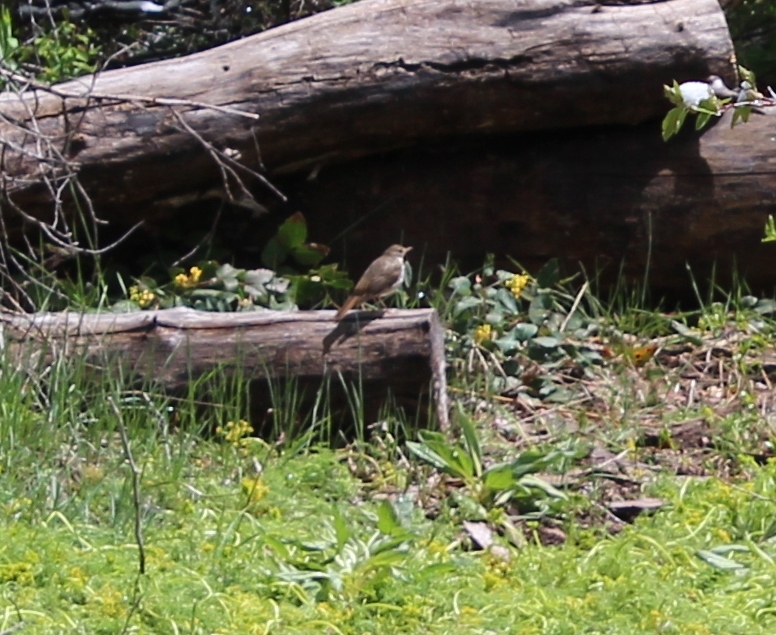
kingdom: Animalia
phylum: Chordata
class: Aves
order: Passeriformes
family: Turdidae
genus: Catharus
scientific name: Catharus guttatus
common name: Hermit thrush
